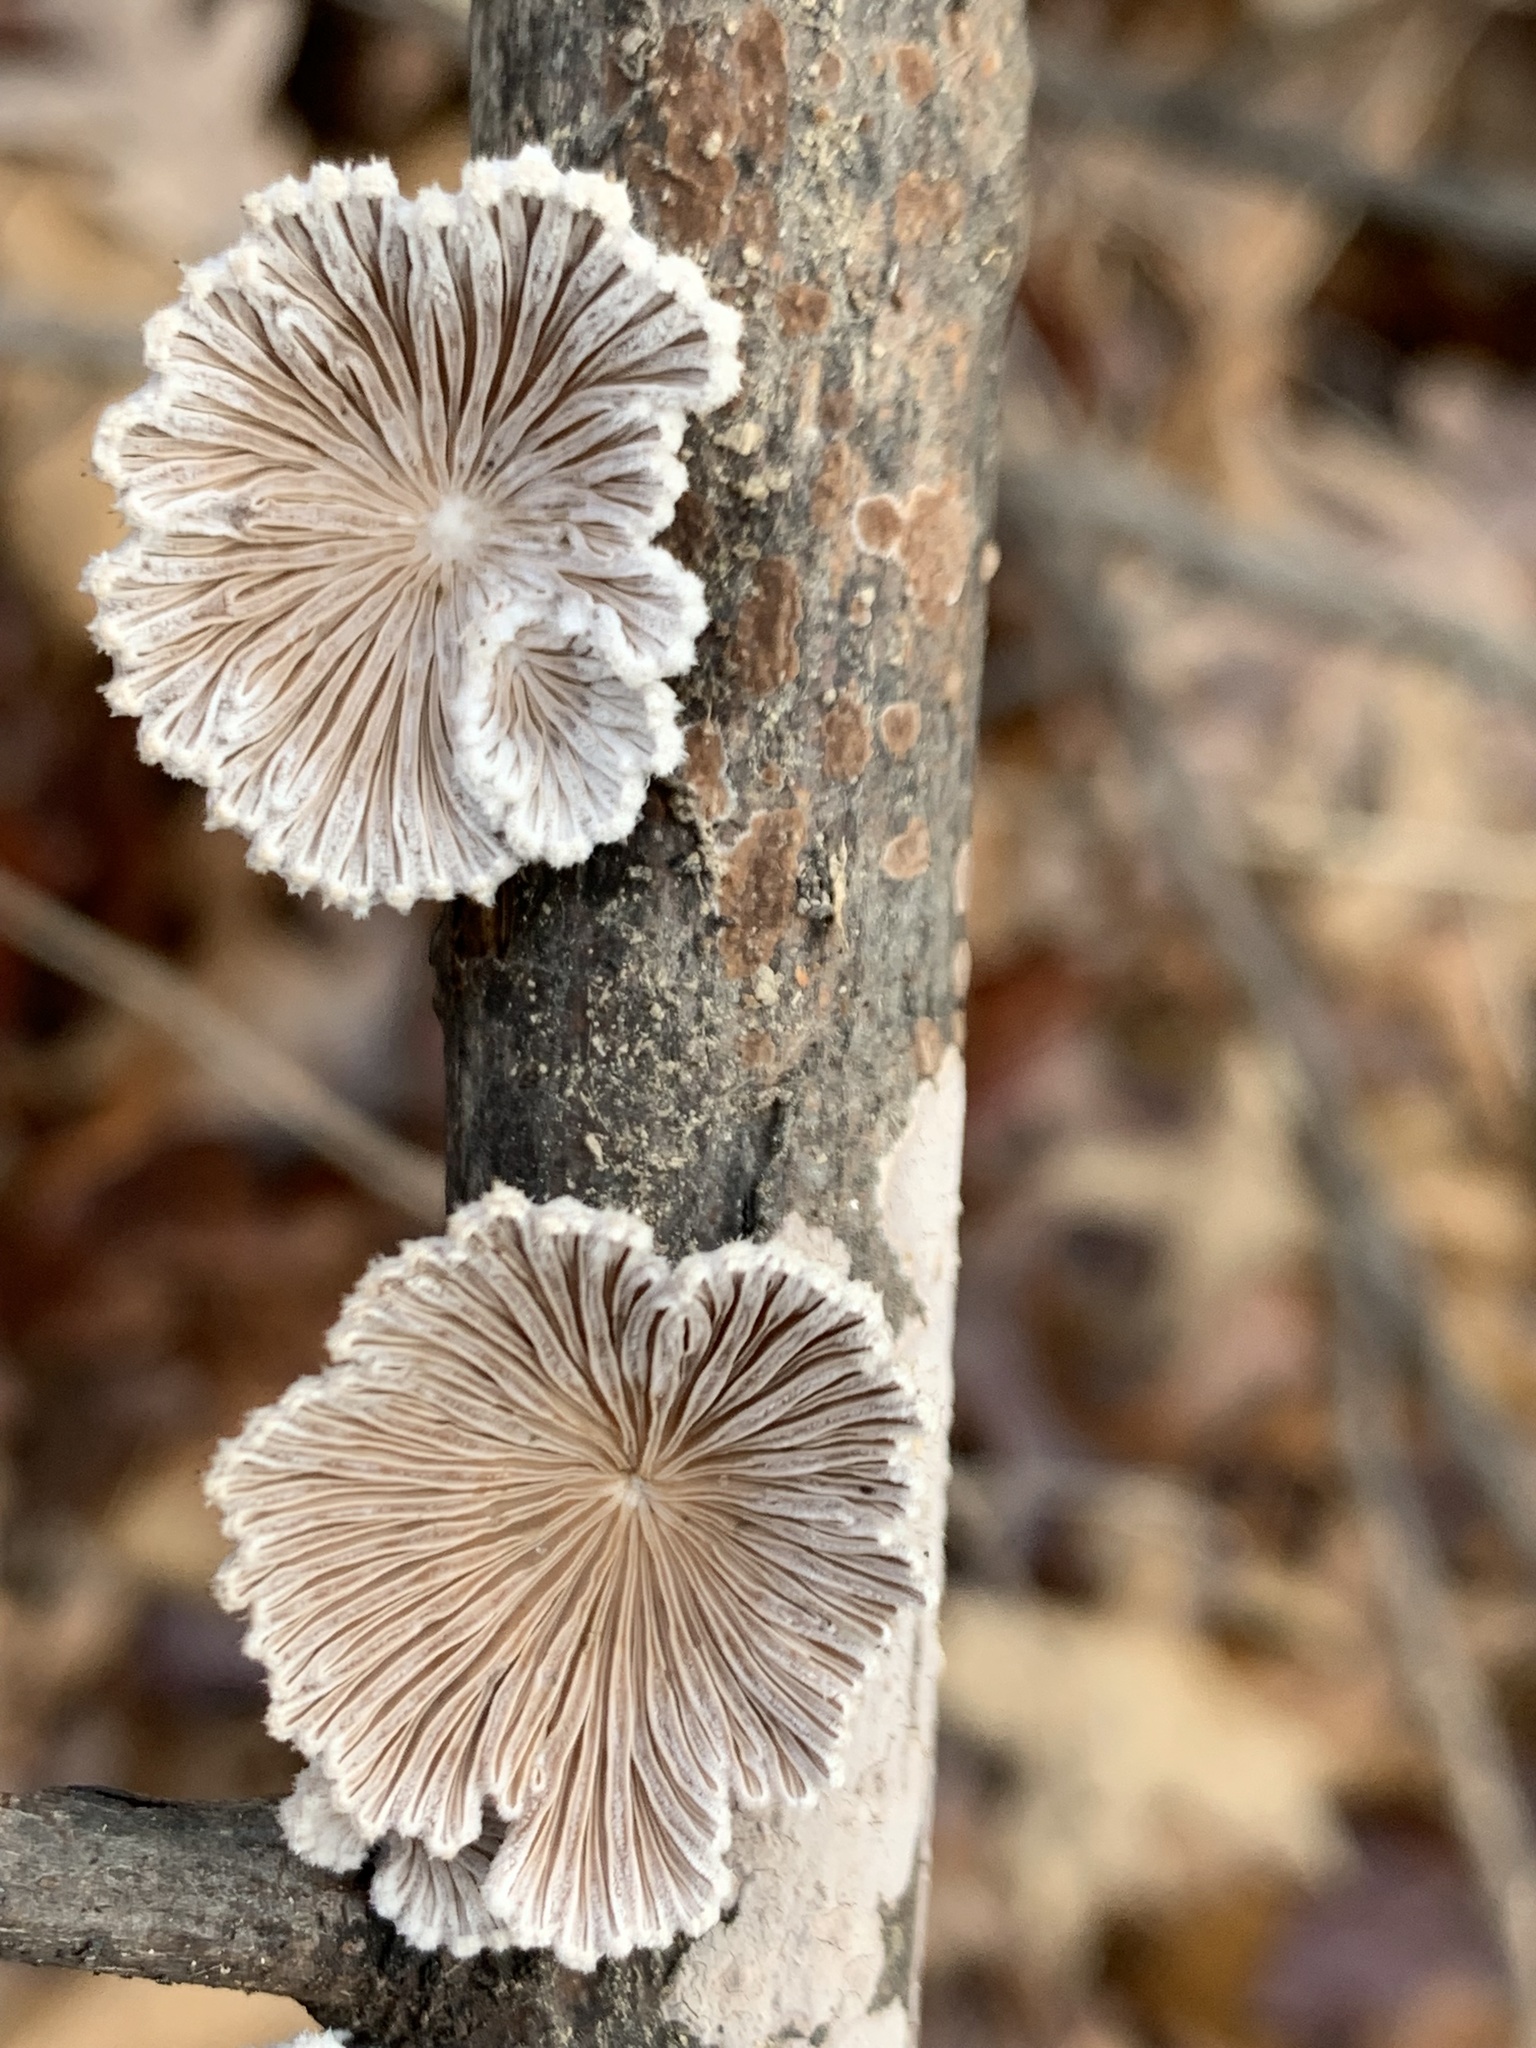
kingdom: Fungi
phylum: Basidiomycota
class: Agaricomycetes
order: Agaricales
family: Schizophyllaceae
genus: Schizophyllum
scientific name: Schizophyllum commune
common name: Common porecrust
